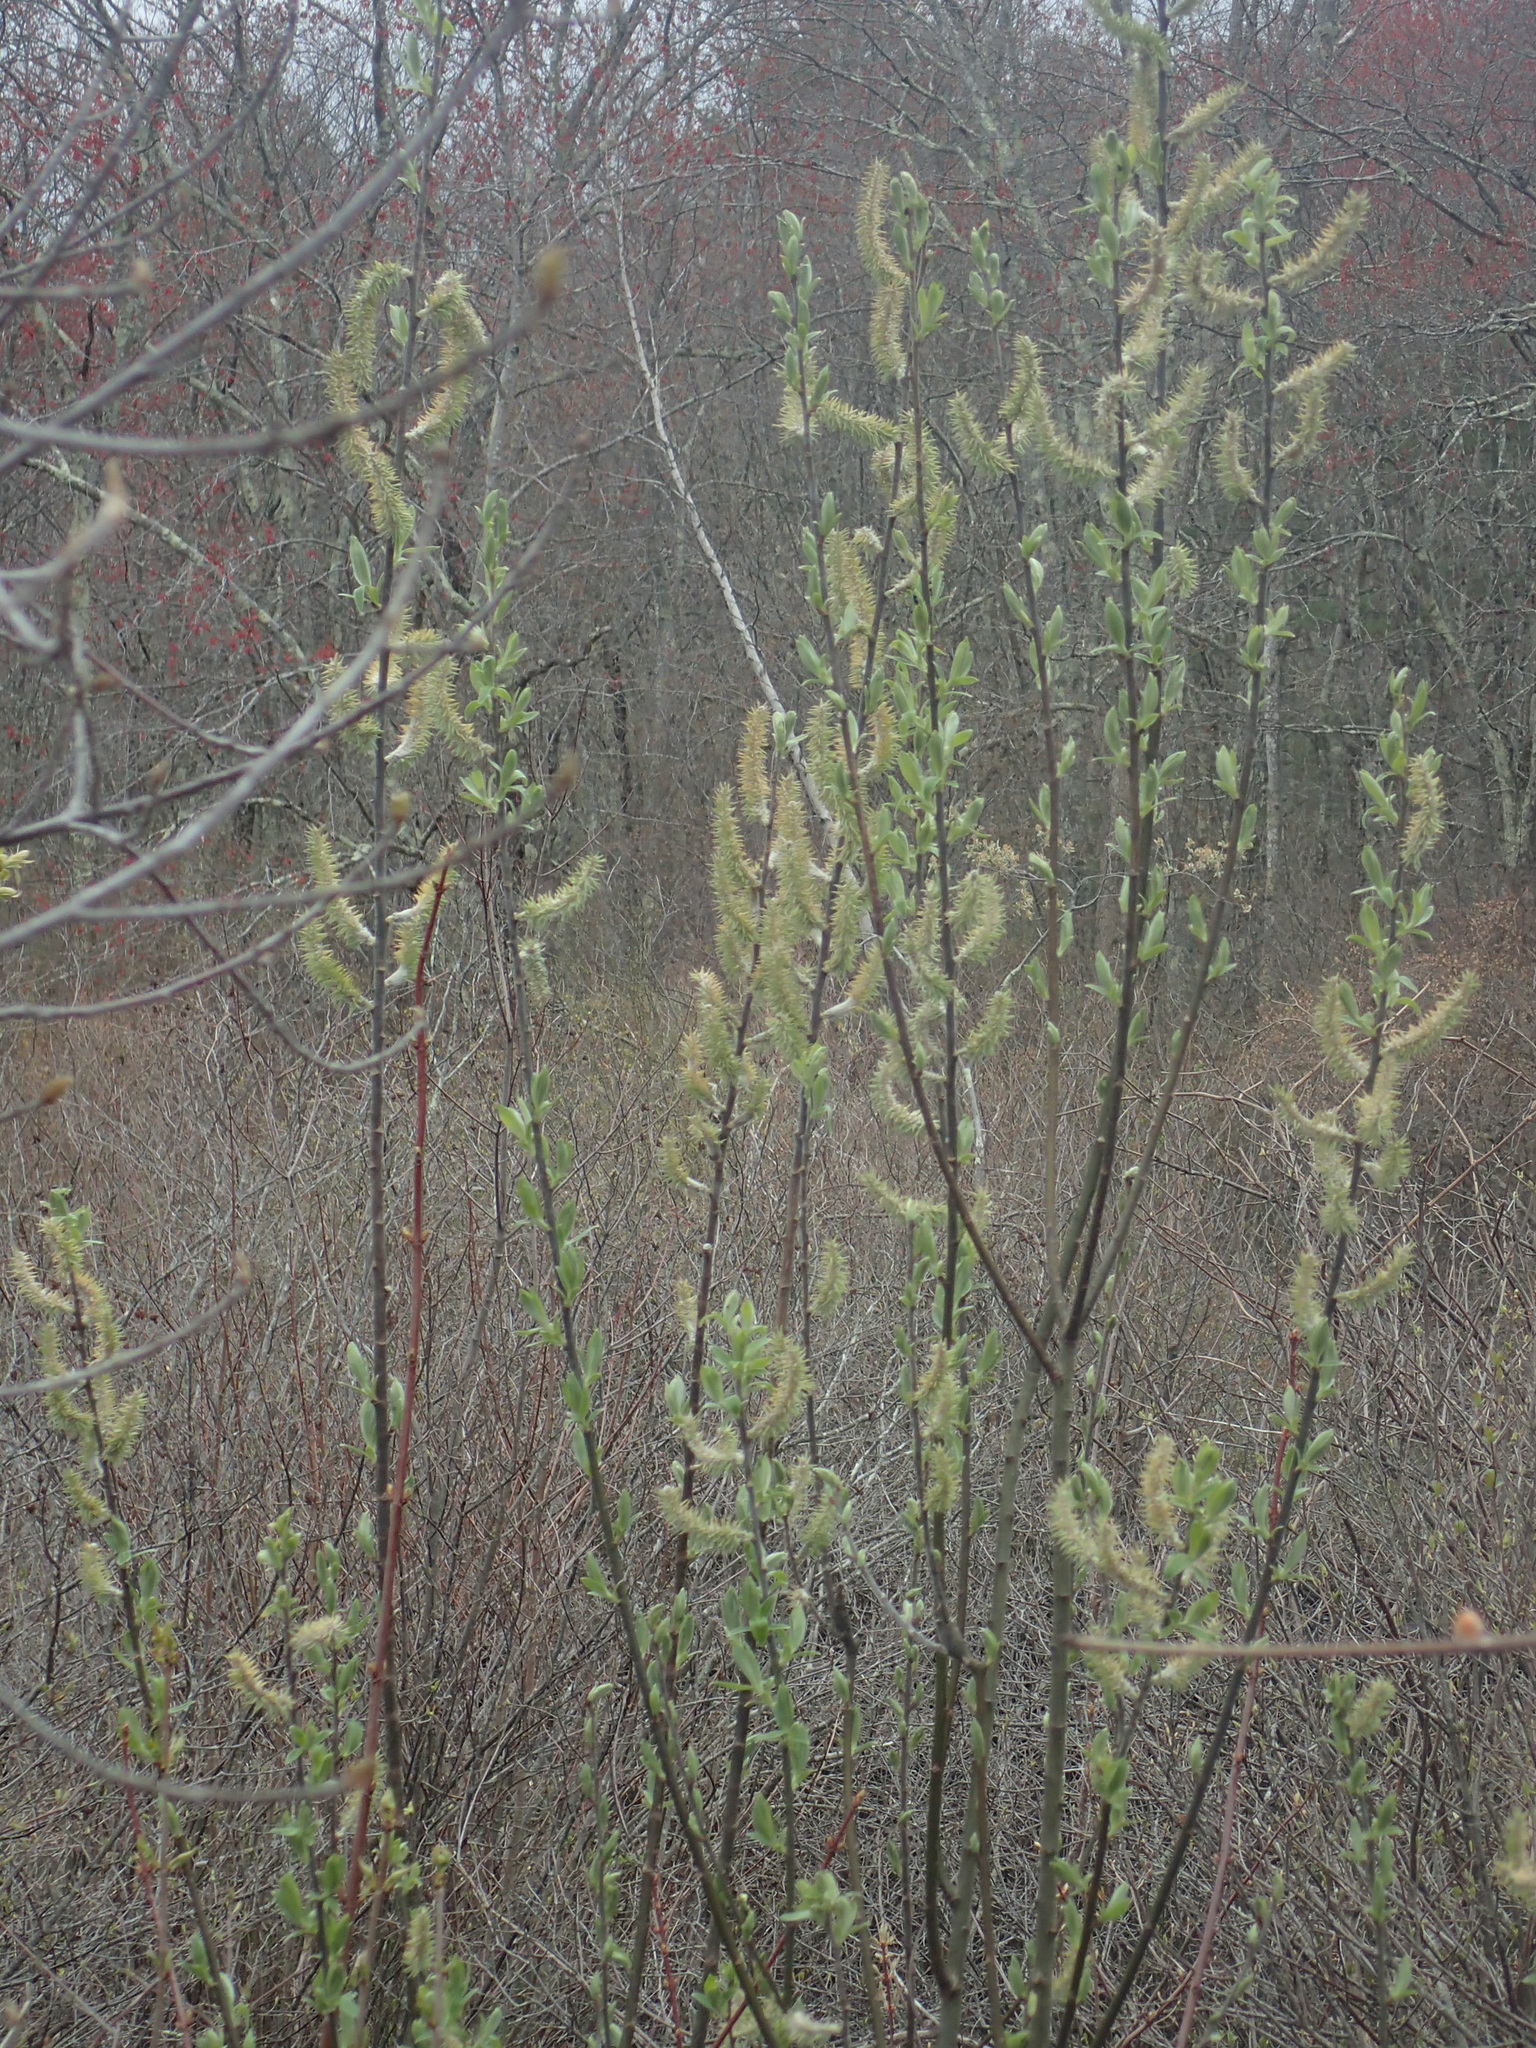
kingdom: Plantae
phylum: Tracheophyta
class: Magnoliopsida
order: Malpighiales
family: Salicaceae
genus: Salix
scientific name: Salix discolor
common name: Glaucous willow
